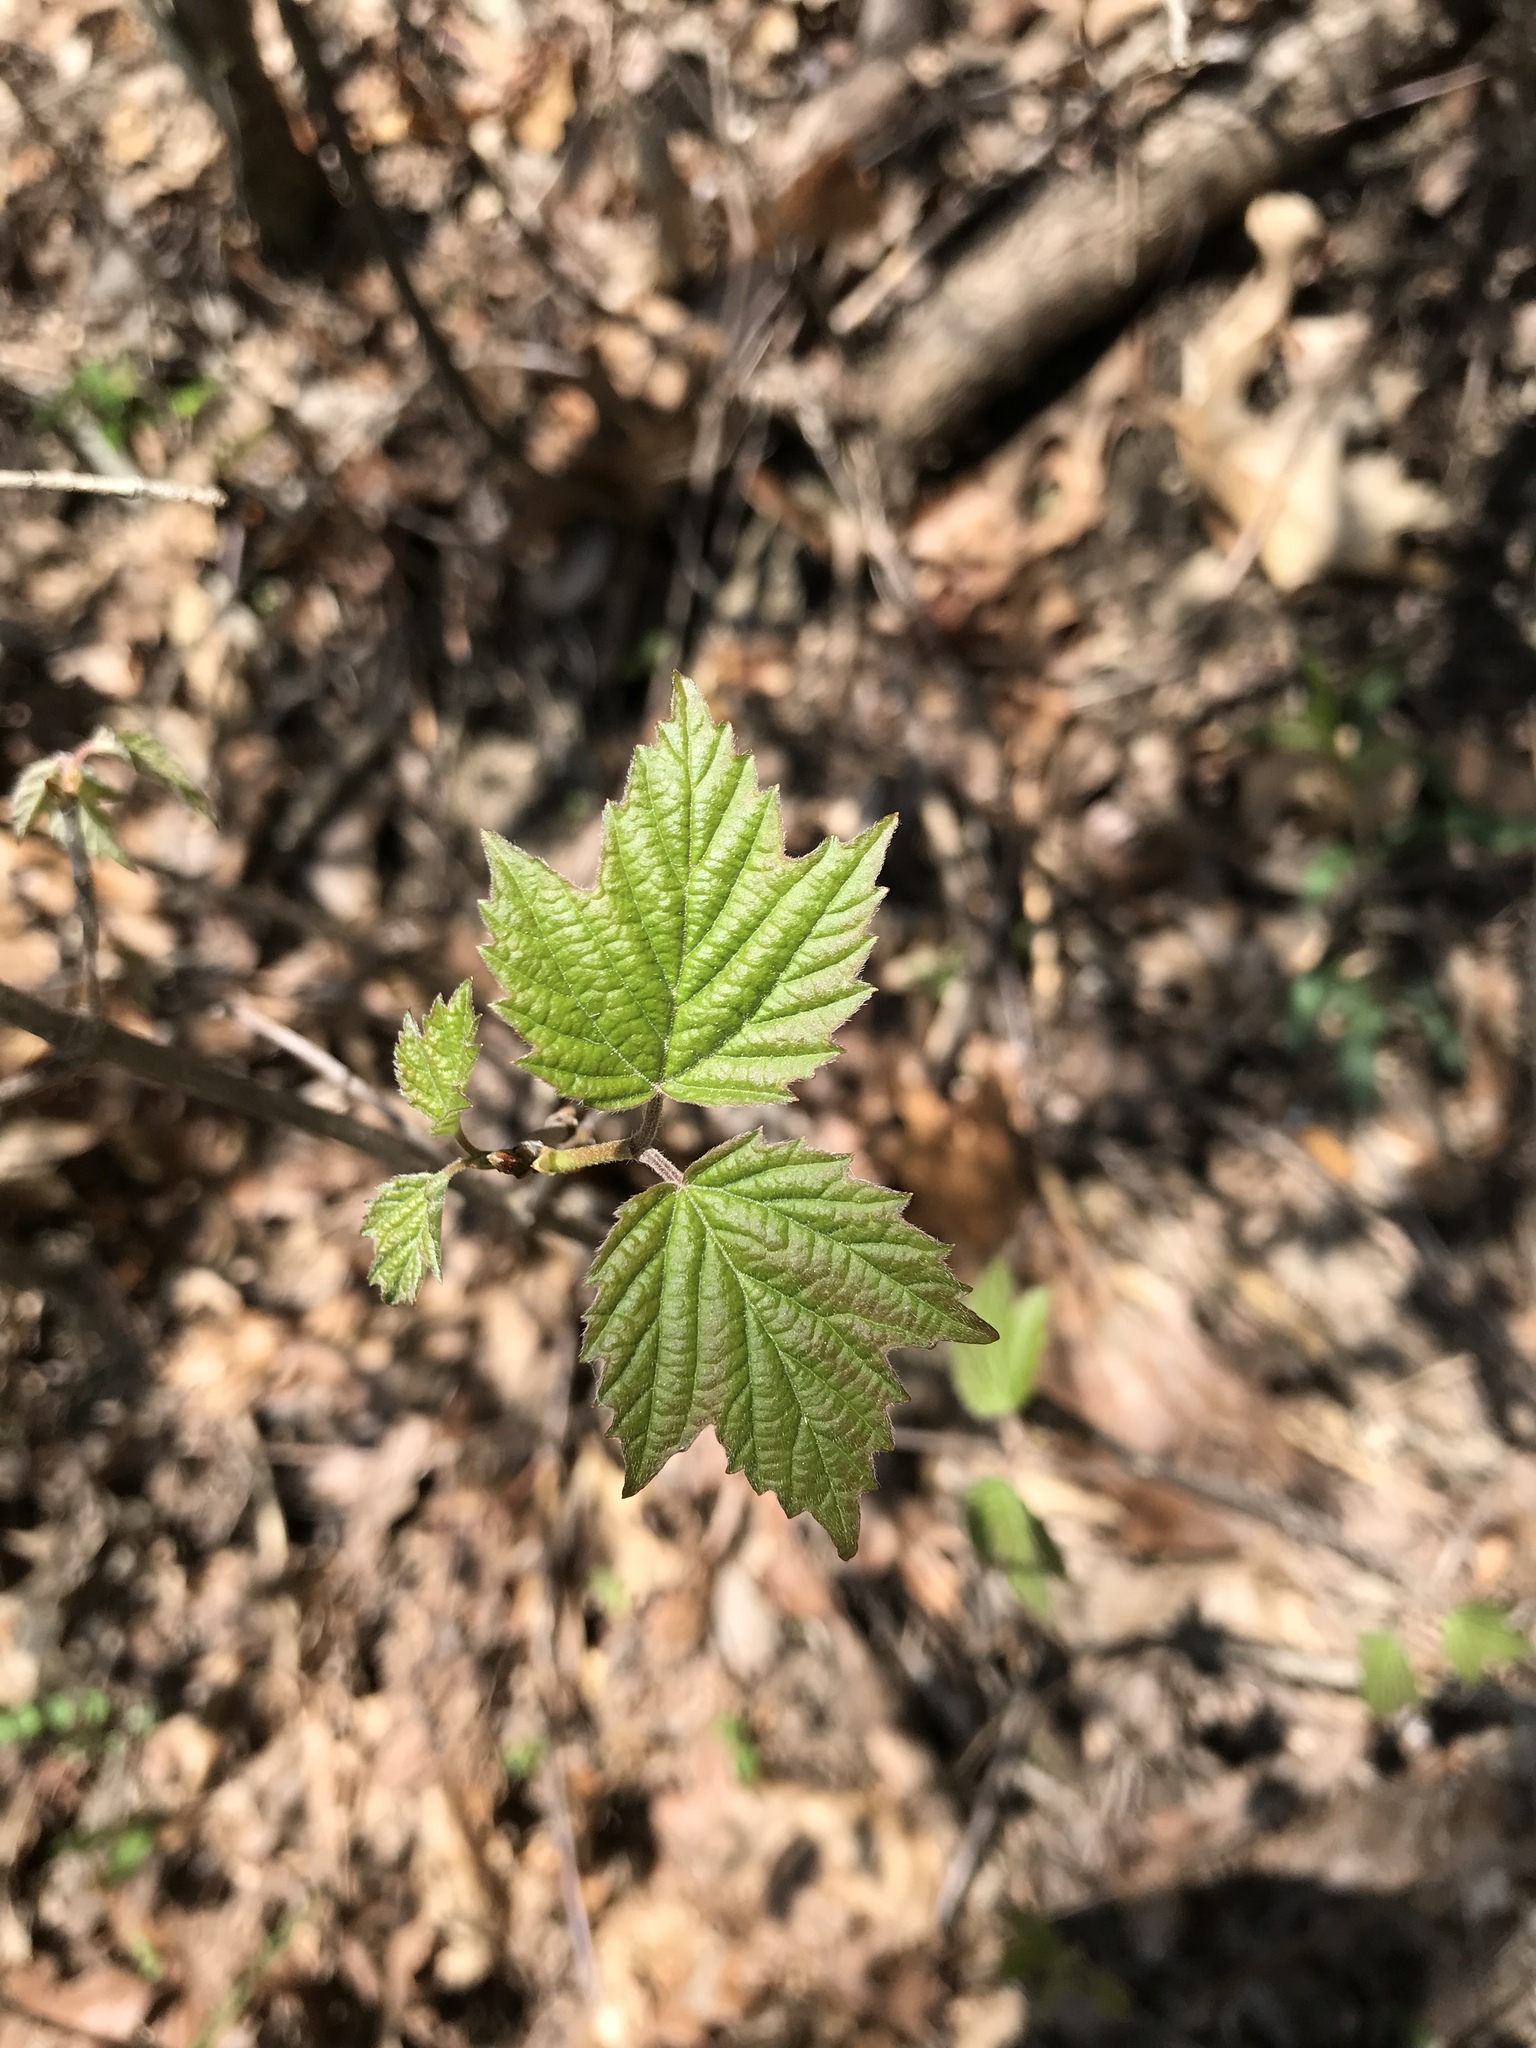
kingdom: Plantae
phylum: Tracheophyta
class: Magnoliopsida
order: Dipsacales
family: Viburnaceae
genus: Viburnum
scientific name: Viburnum acerifolium
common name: Dockmackie
